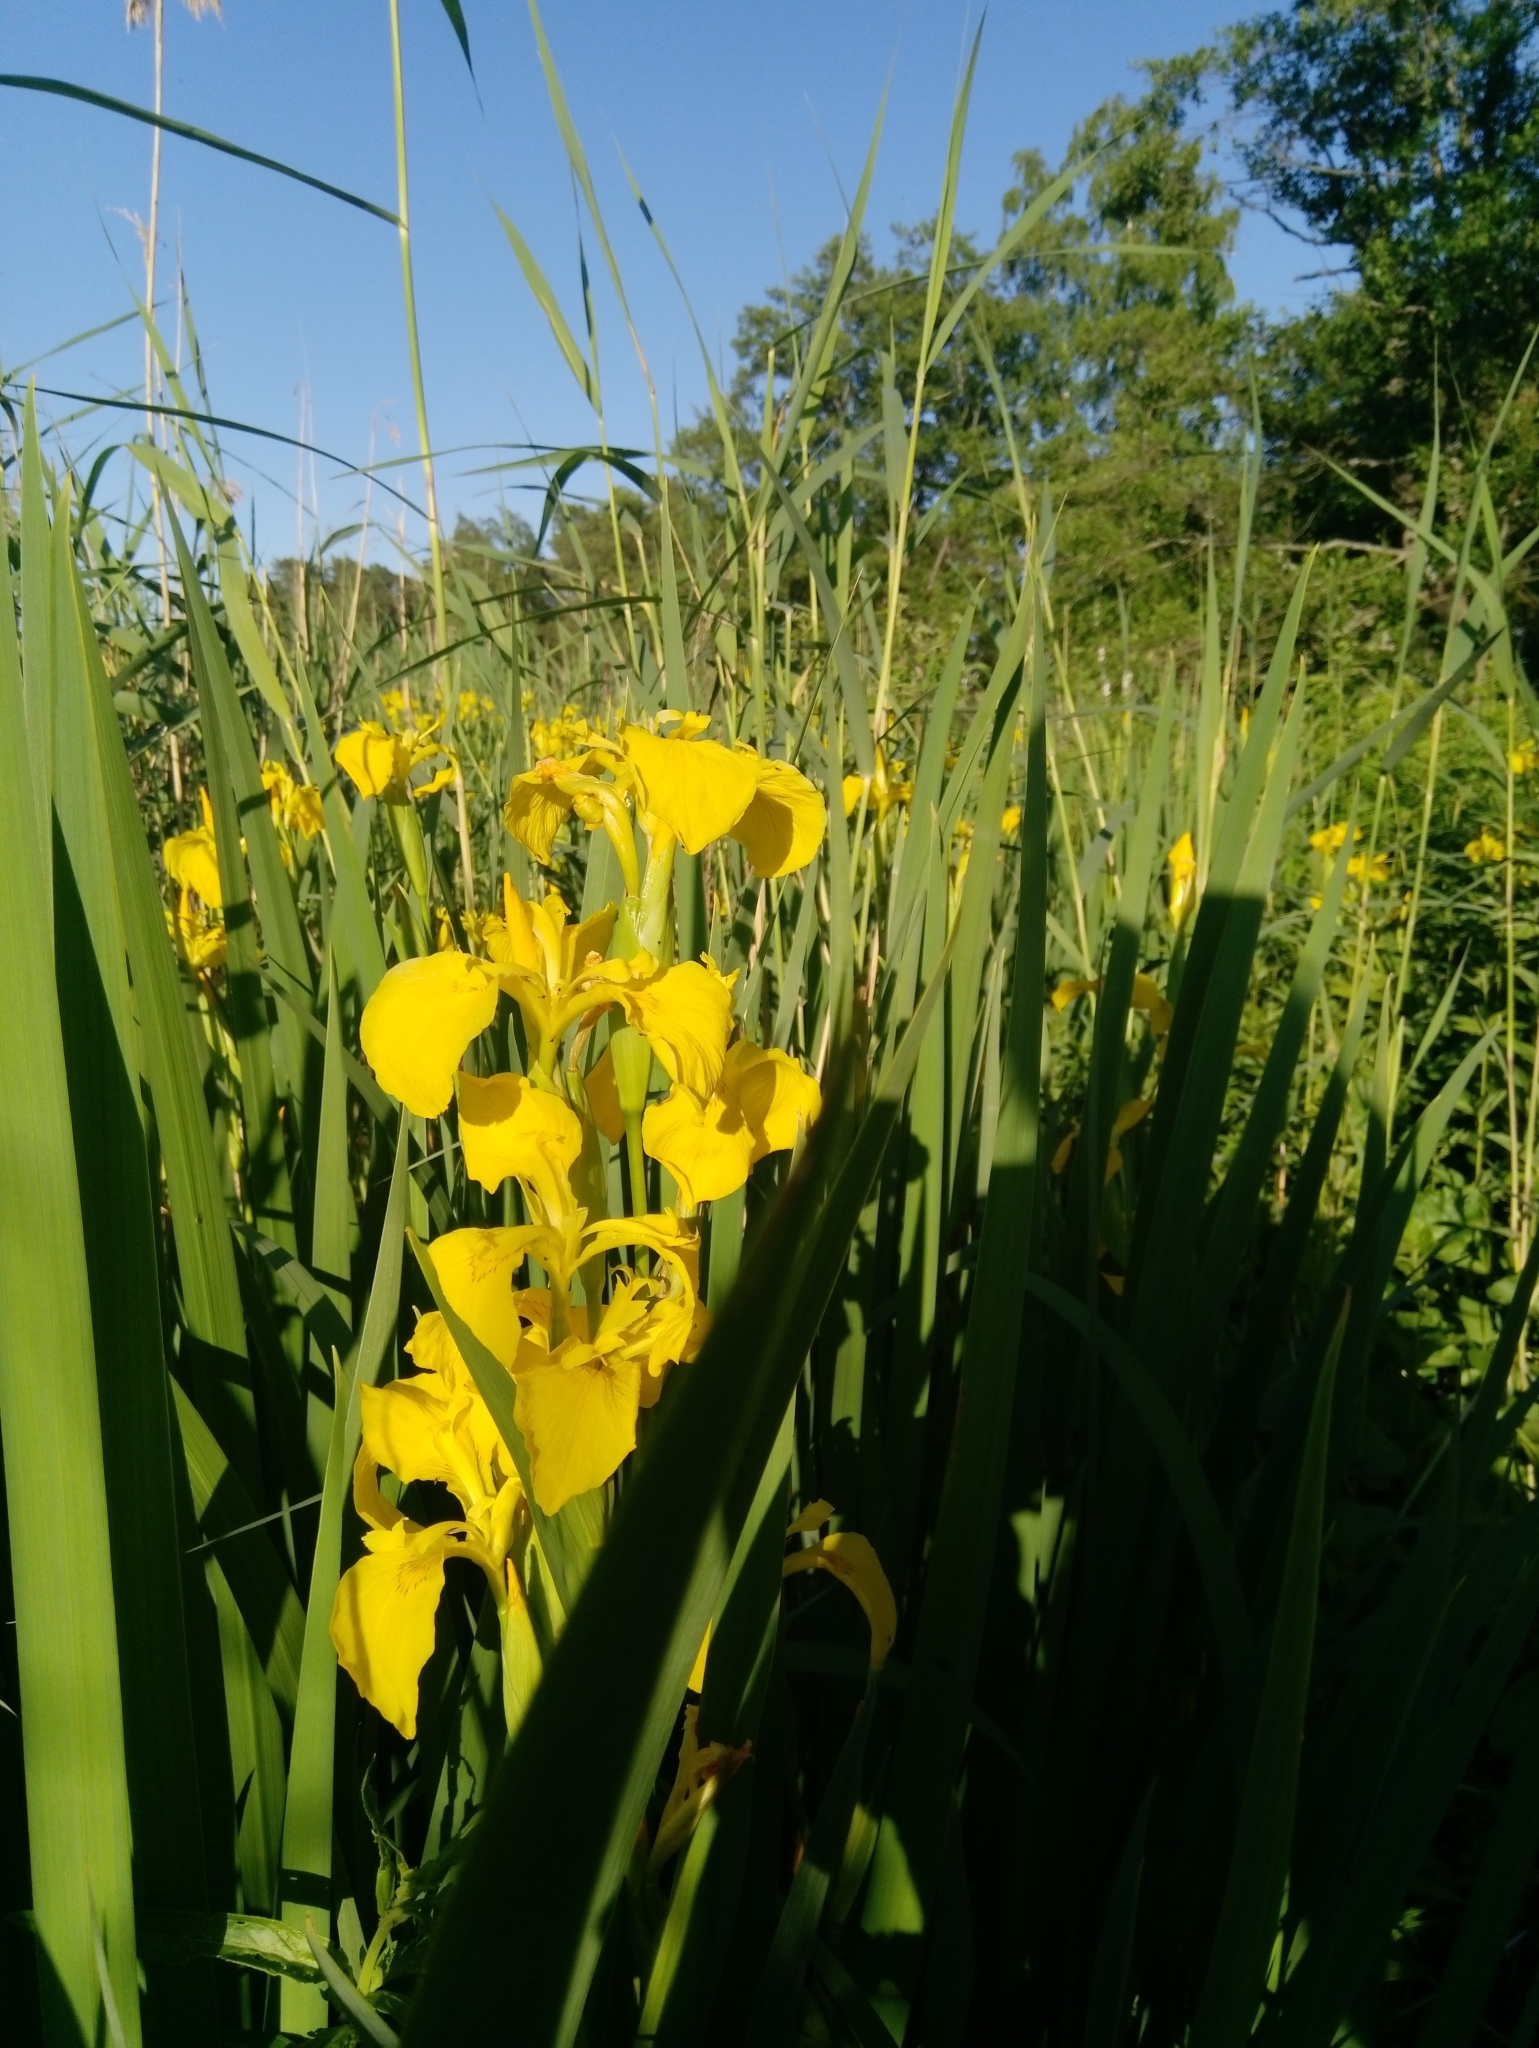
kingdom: Plantae
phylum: Tracheophyta
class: Liliopsida
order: Asparagales
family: Iridaceae
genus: Iris
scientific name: Iris pseudacorus
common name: Yellow flag
